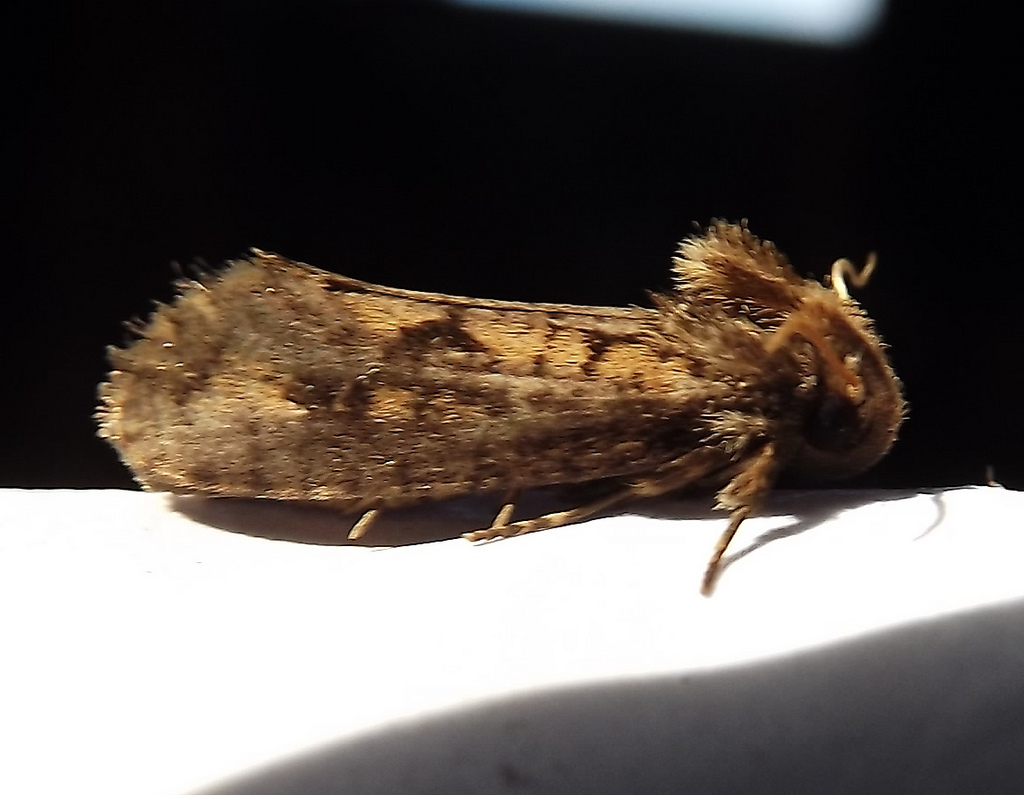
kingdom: Animalia
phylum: Arthropoda
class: Insecta
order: Lepidoptera
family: Tineidae
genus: Acrolophus
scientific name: Acrolophus popeanella
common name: Clemens' grass tubeworm moth
